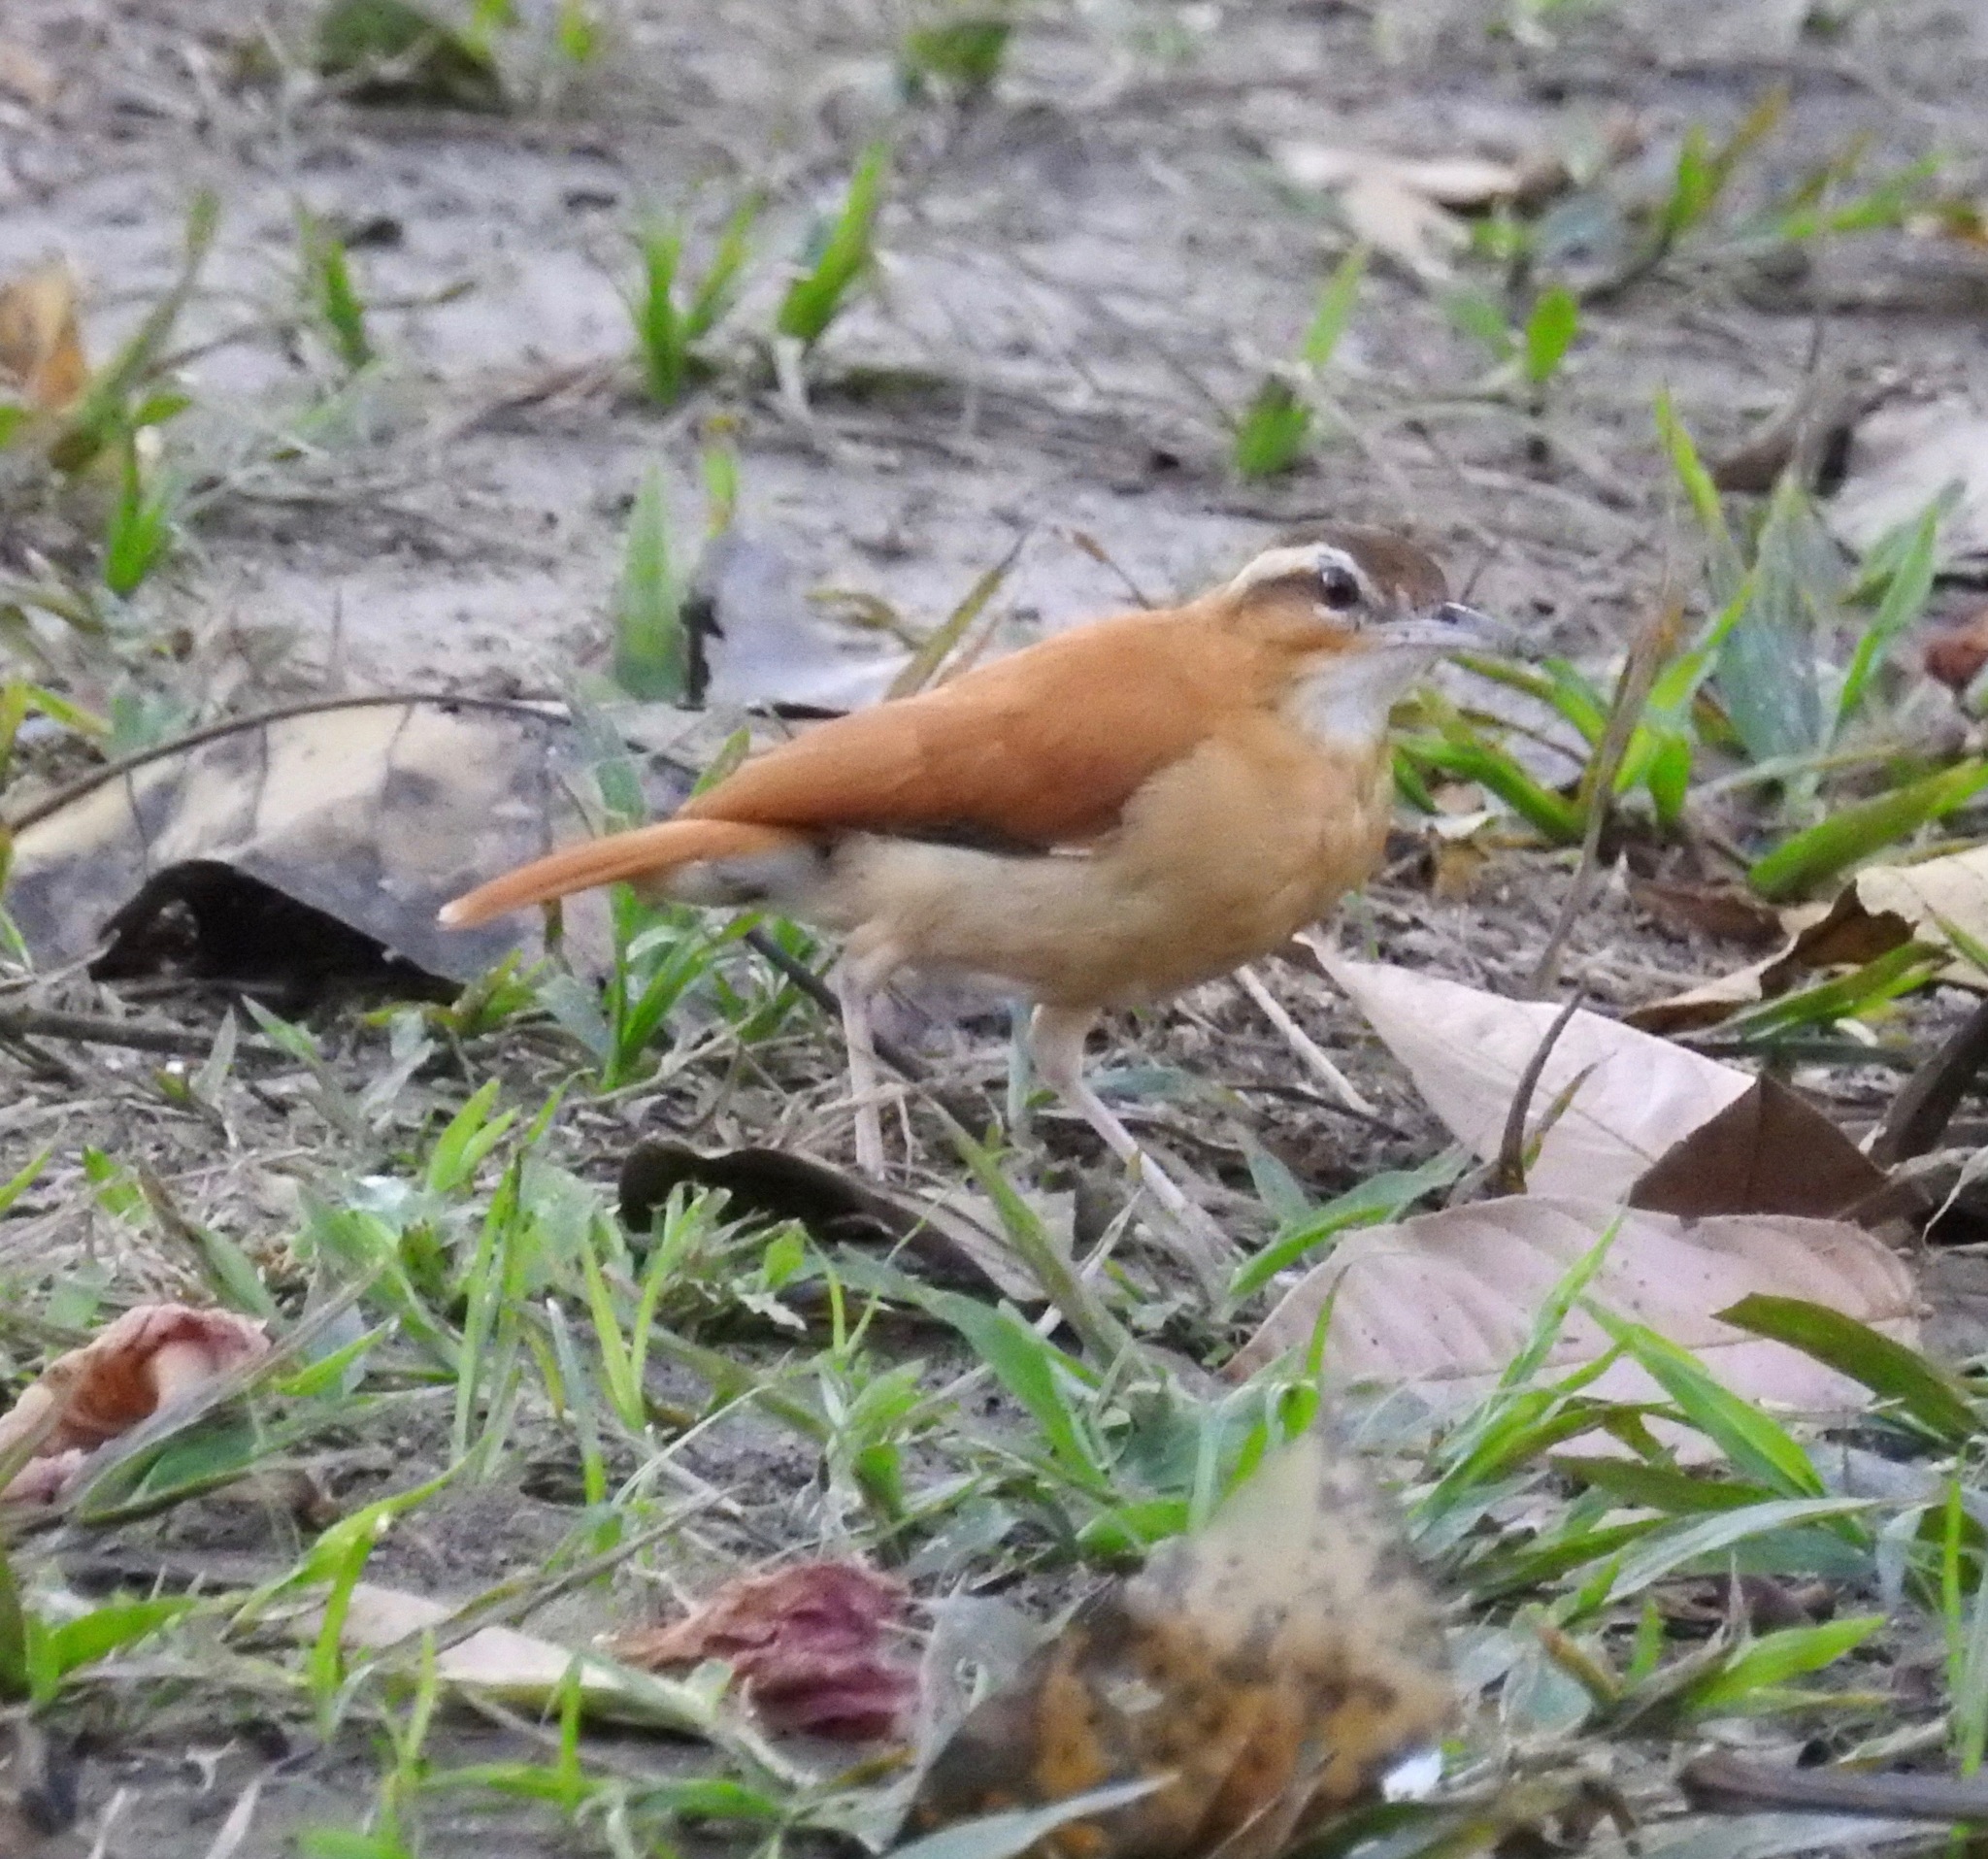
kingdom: Animalia
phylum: Chordata
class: Aves
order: Passeriformes
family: Furnariidae
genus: Furnarius
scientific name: Furnarius leucopus
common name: Pale-legged hornero
